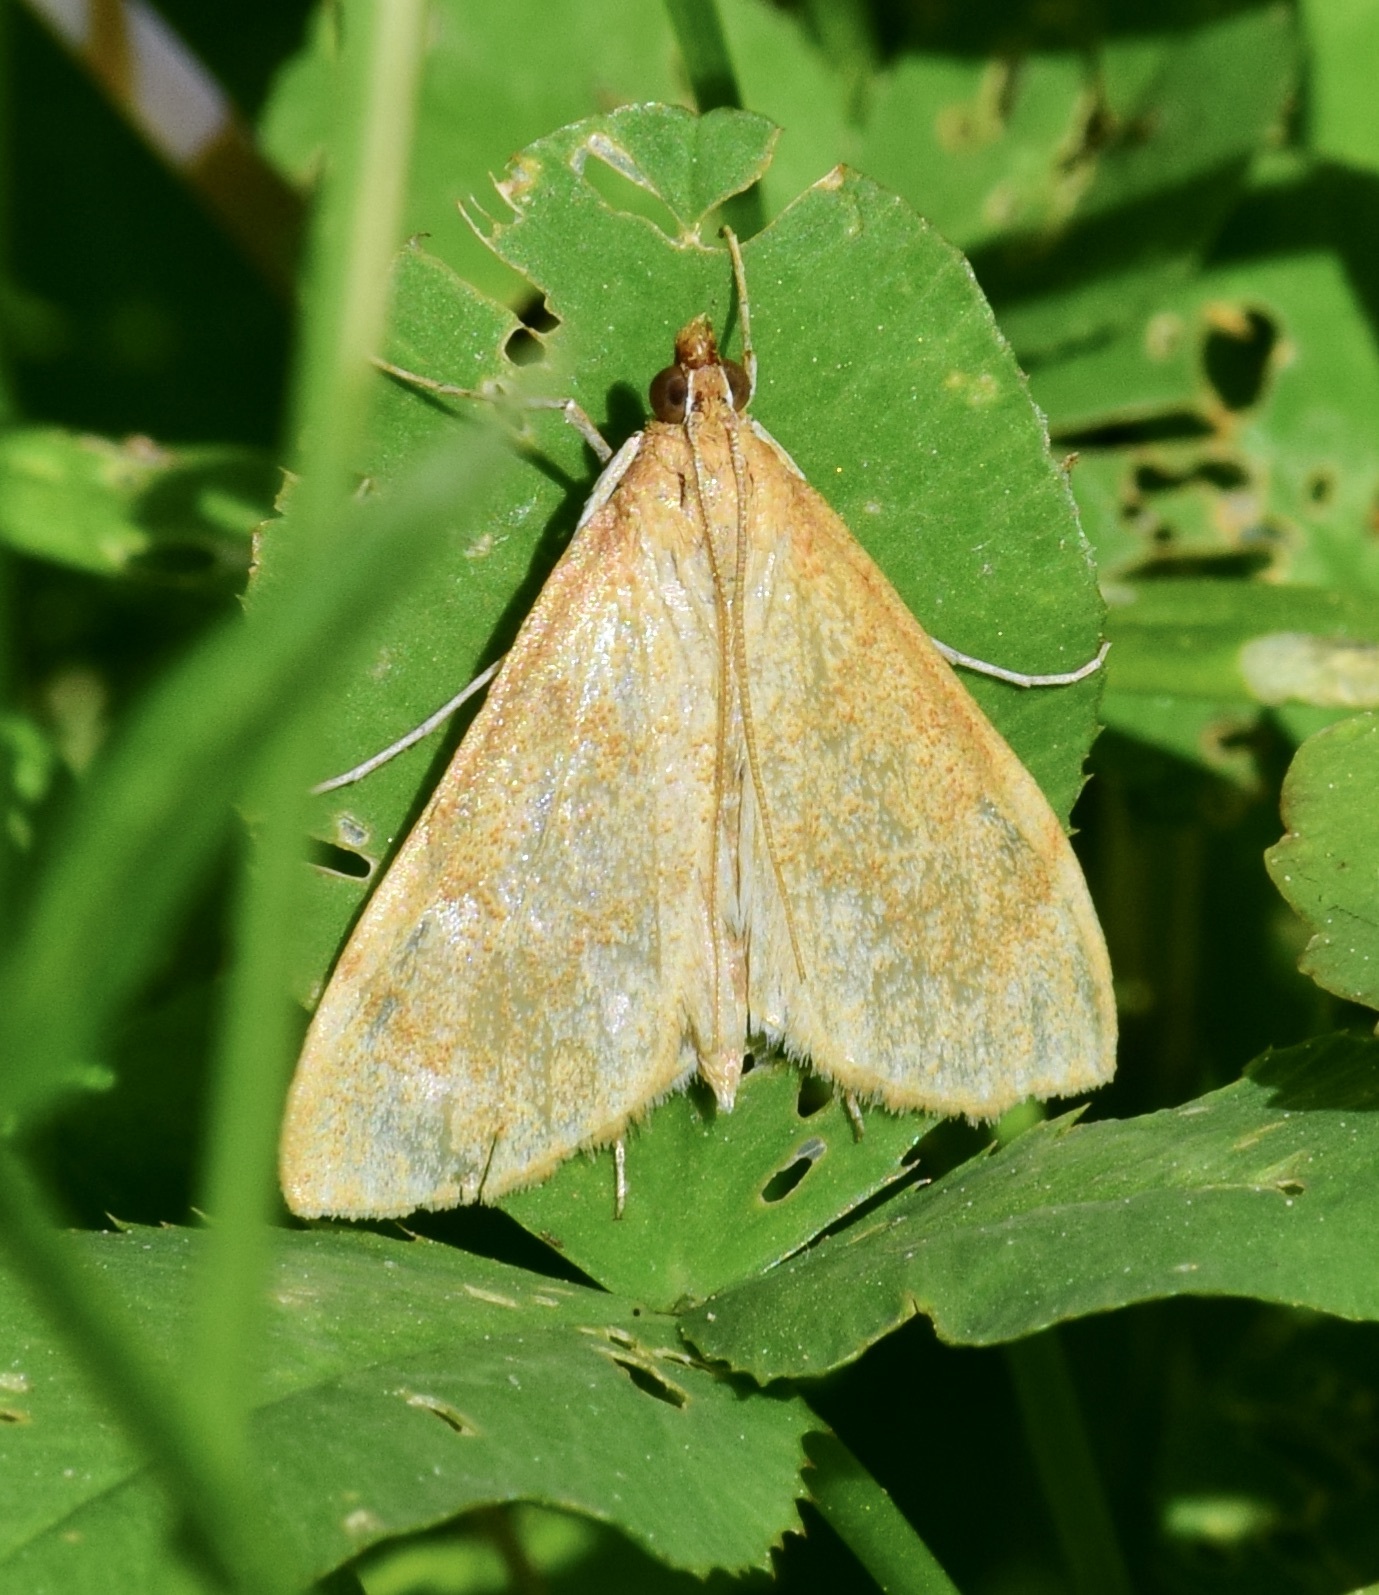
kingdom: Animalia
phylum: Arthropoda
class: Insecta
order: Lepidoptera
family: Crambidae
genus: Saucrobotys
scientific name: Saucrobotys futilalis
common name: Dogbane saucrobotys moth
